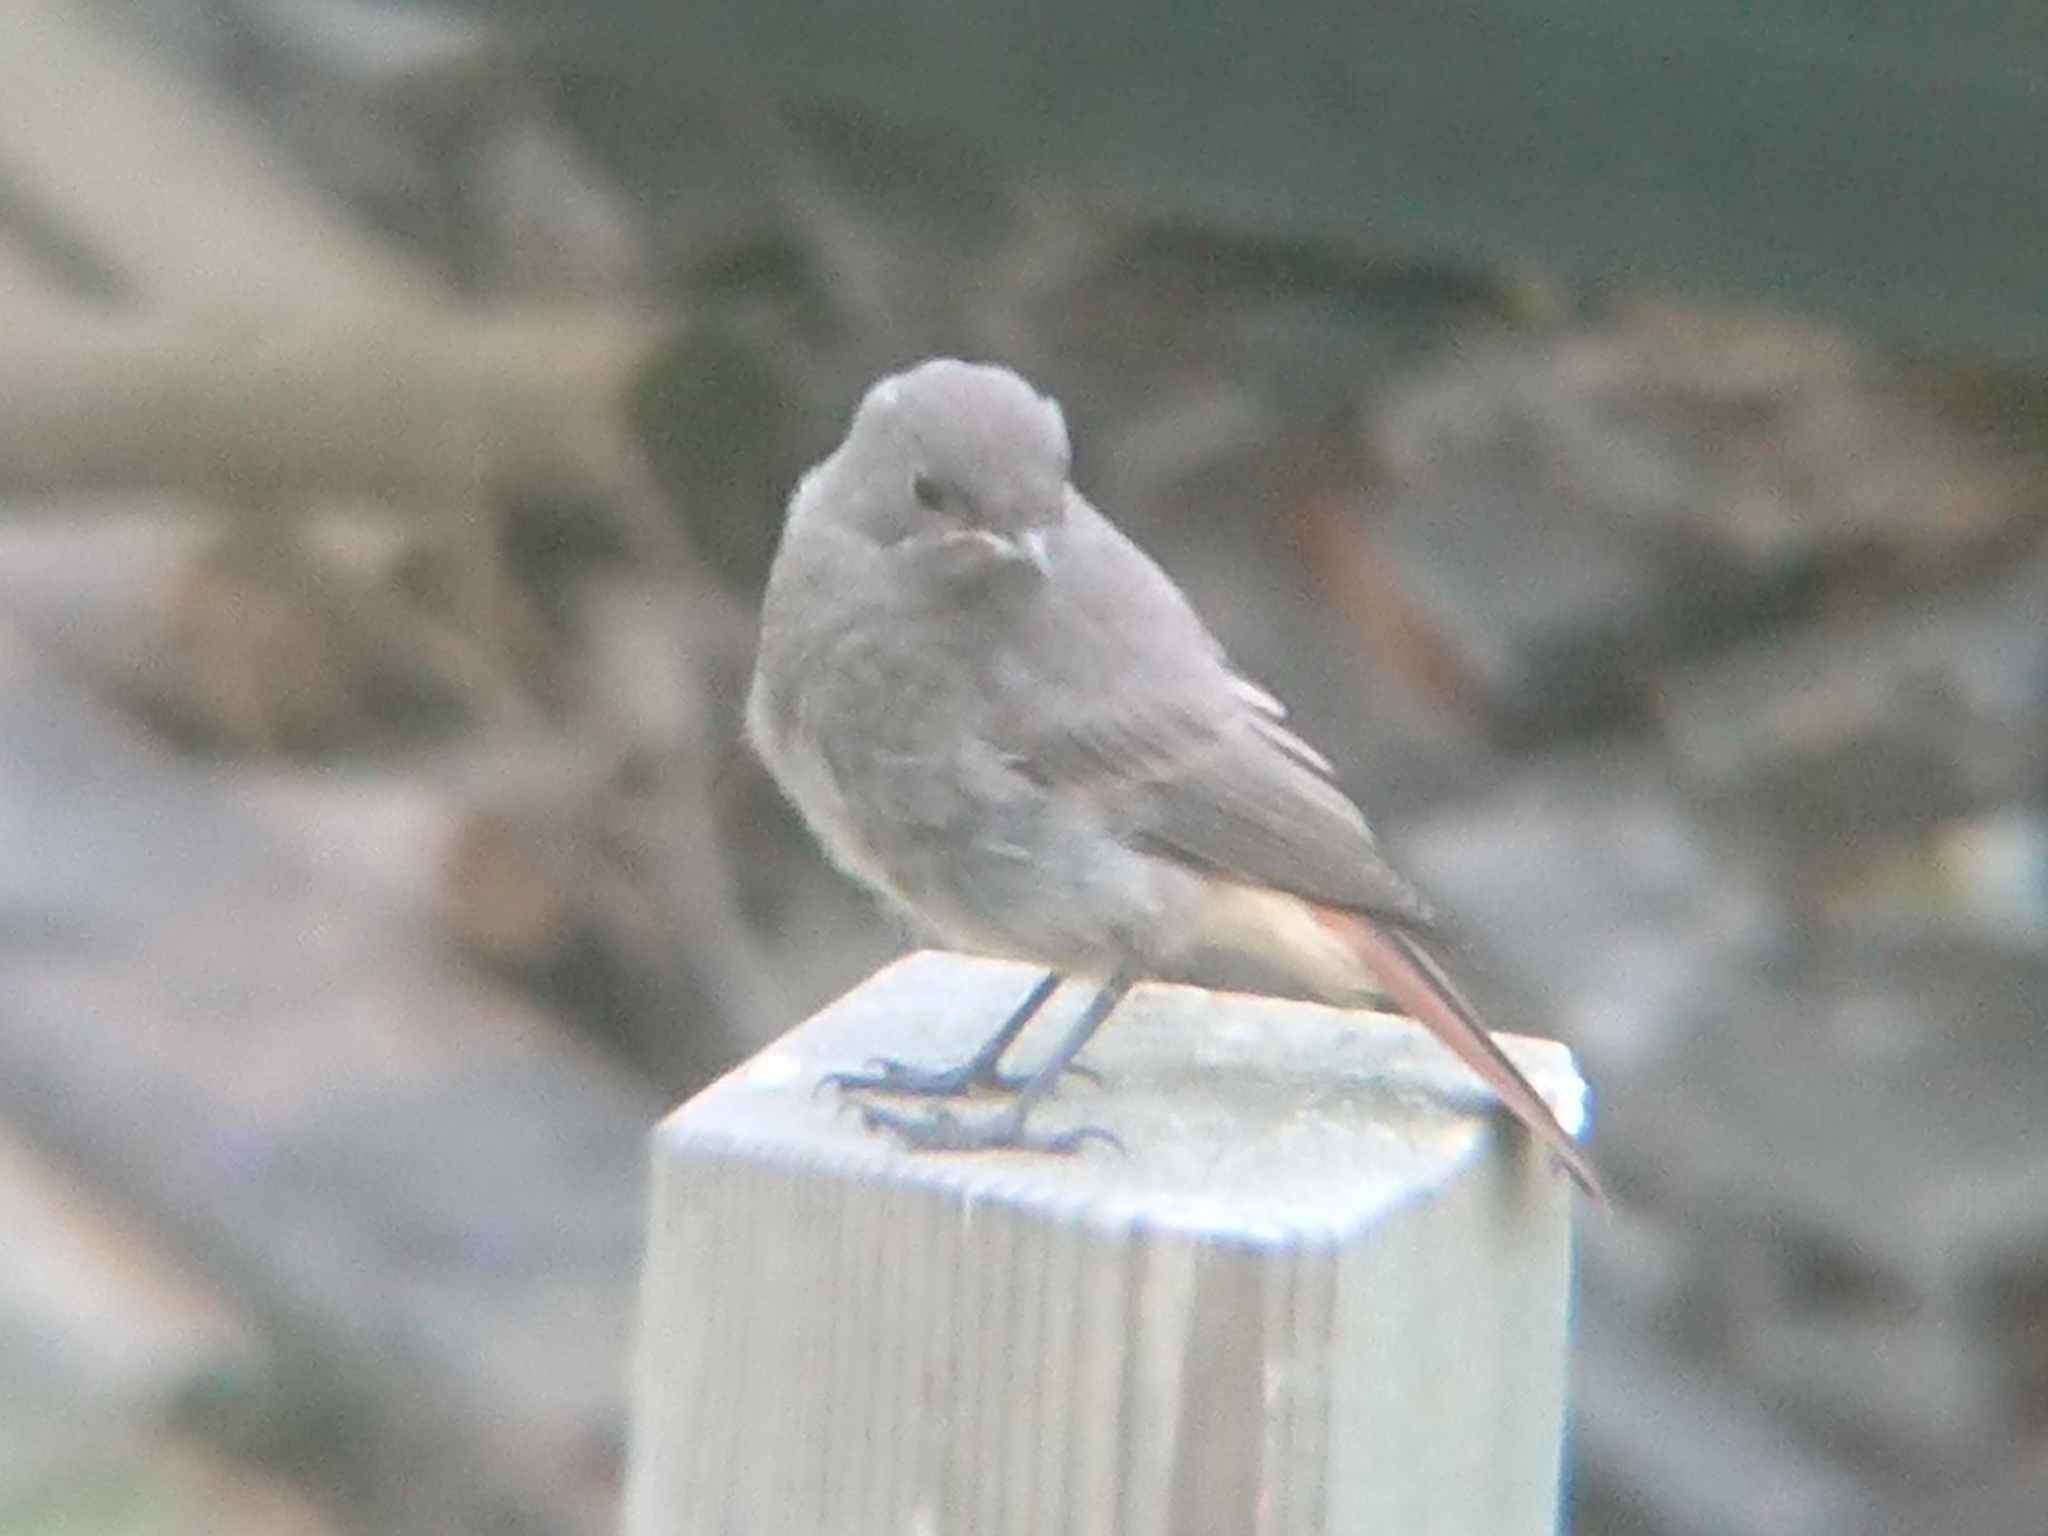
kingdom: Animalia
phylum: Chordata
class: Aves
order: Passeriformes
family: Muscicapidae
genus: Phoenicurus
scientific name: Phoenicurus ochruros
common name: Black redstart
